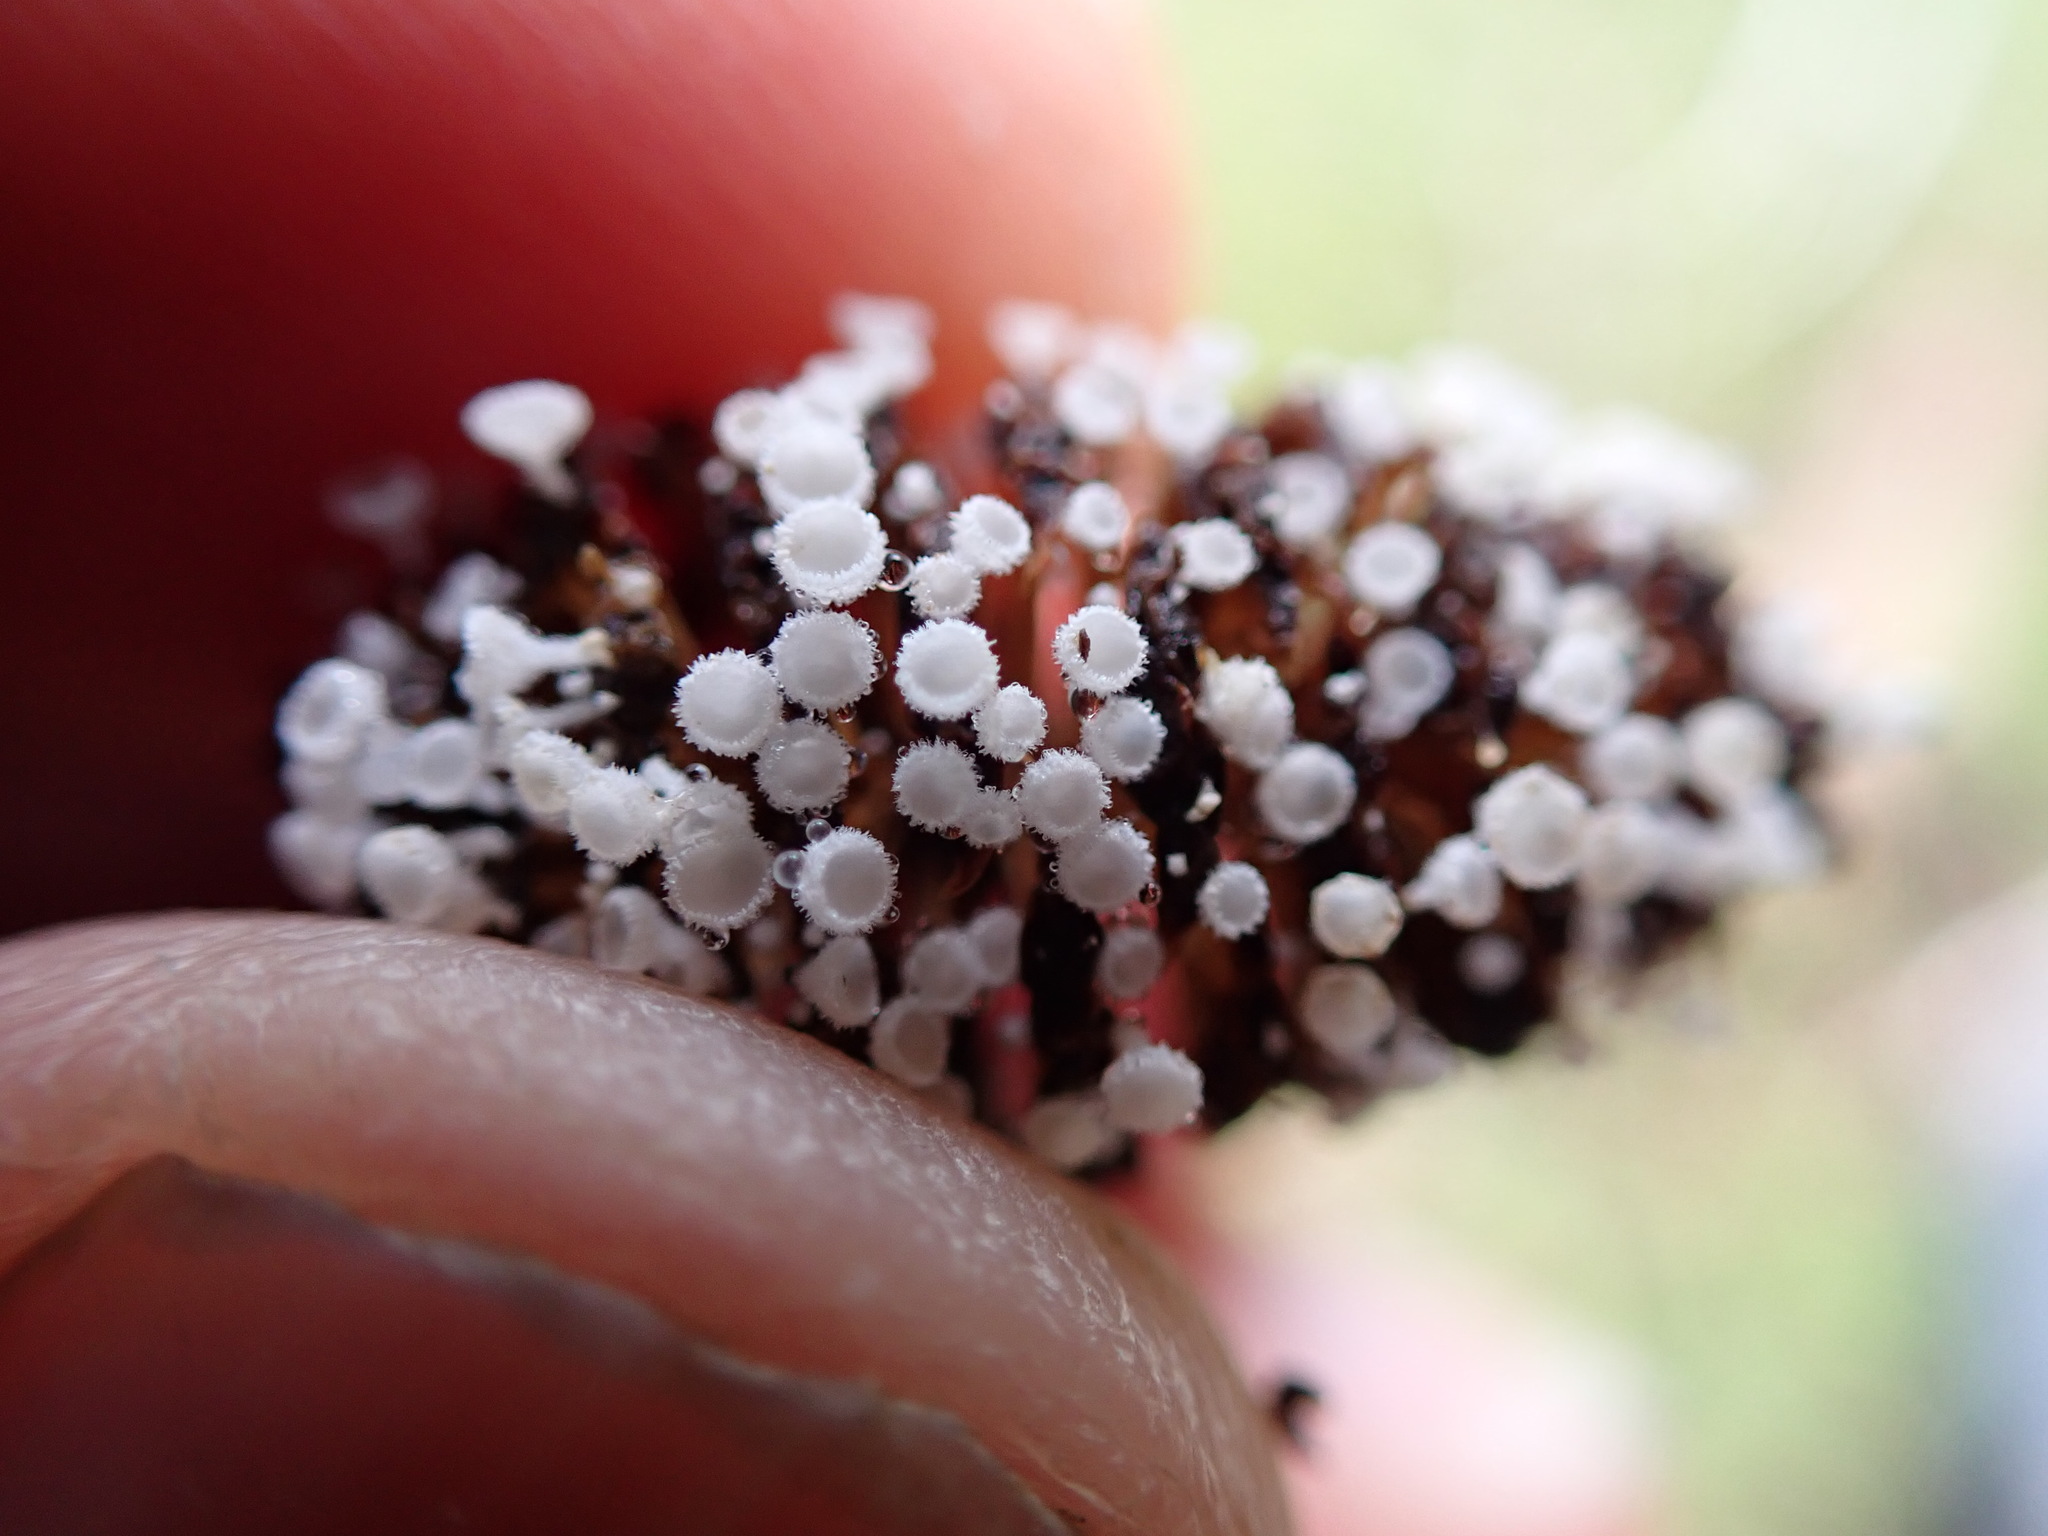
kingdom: Fungi
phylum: Ascomycota
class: Leotiomycetes
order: Helotiales
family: Lachnaceae
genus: Lachnum
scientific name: Lachnum virgineum
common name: Snowy disco
